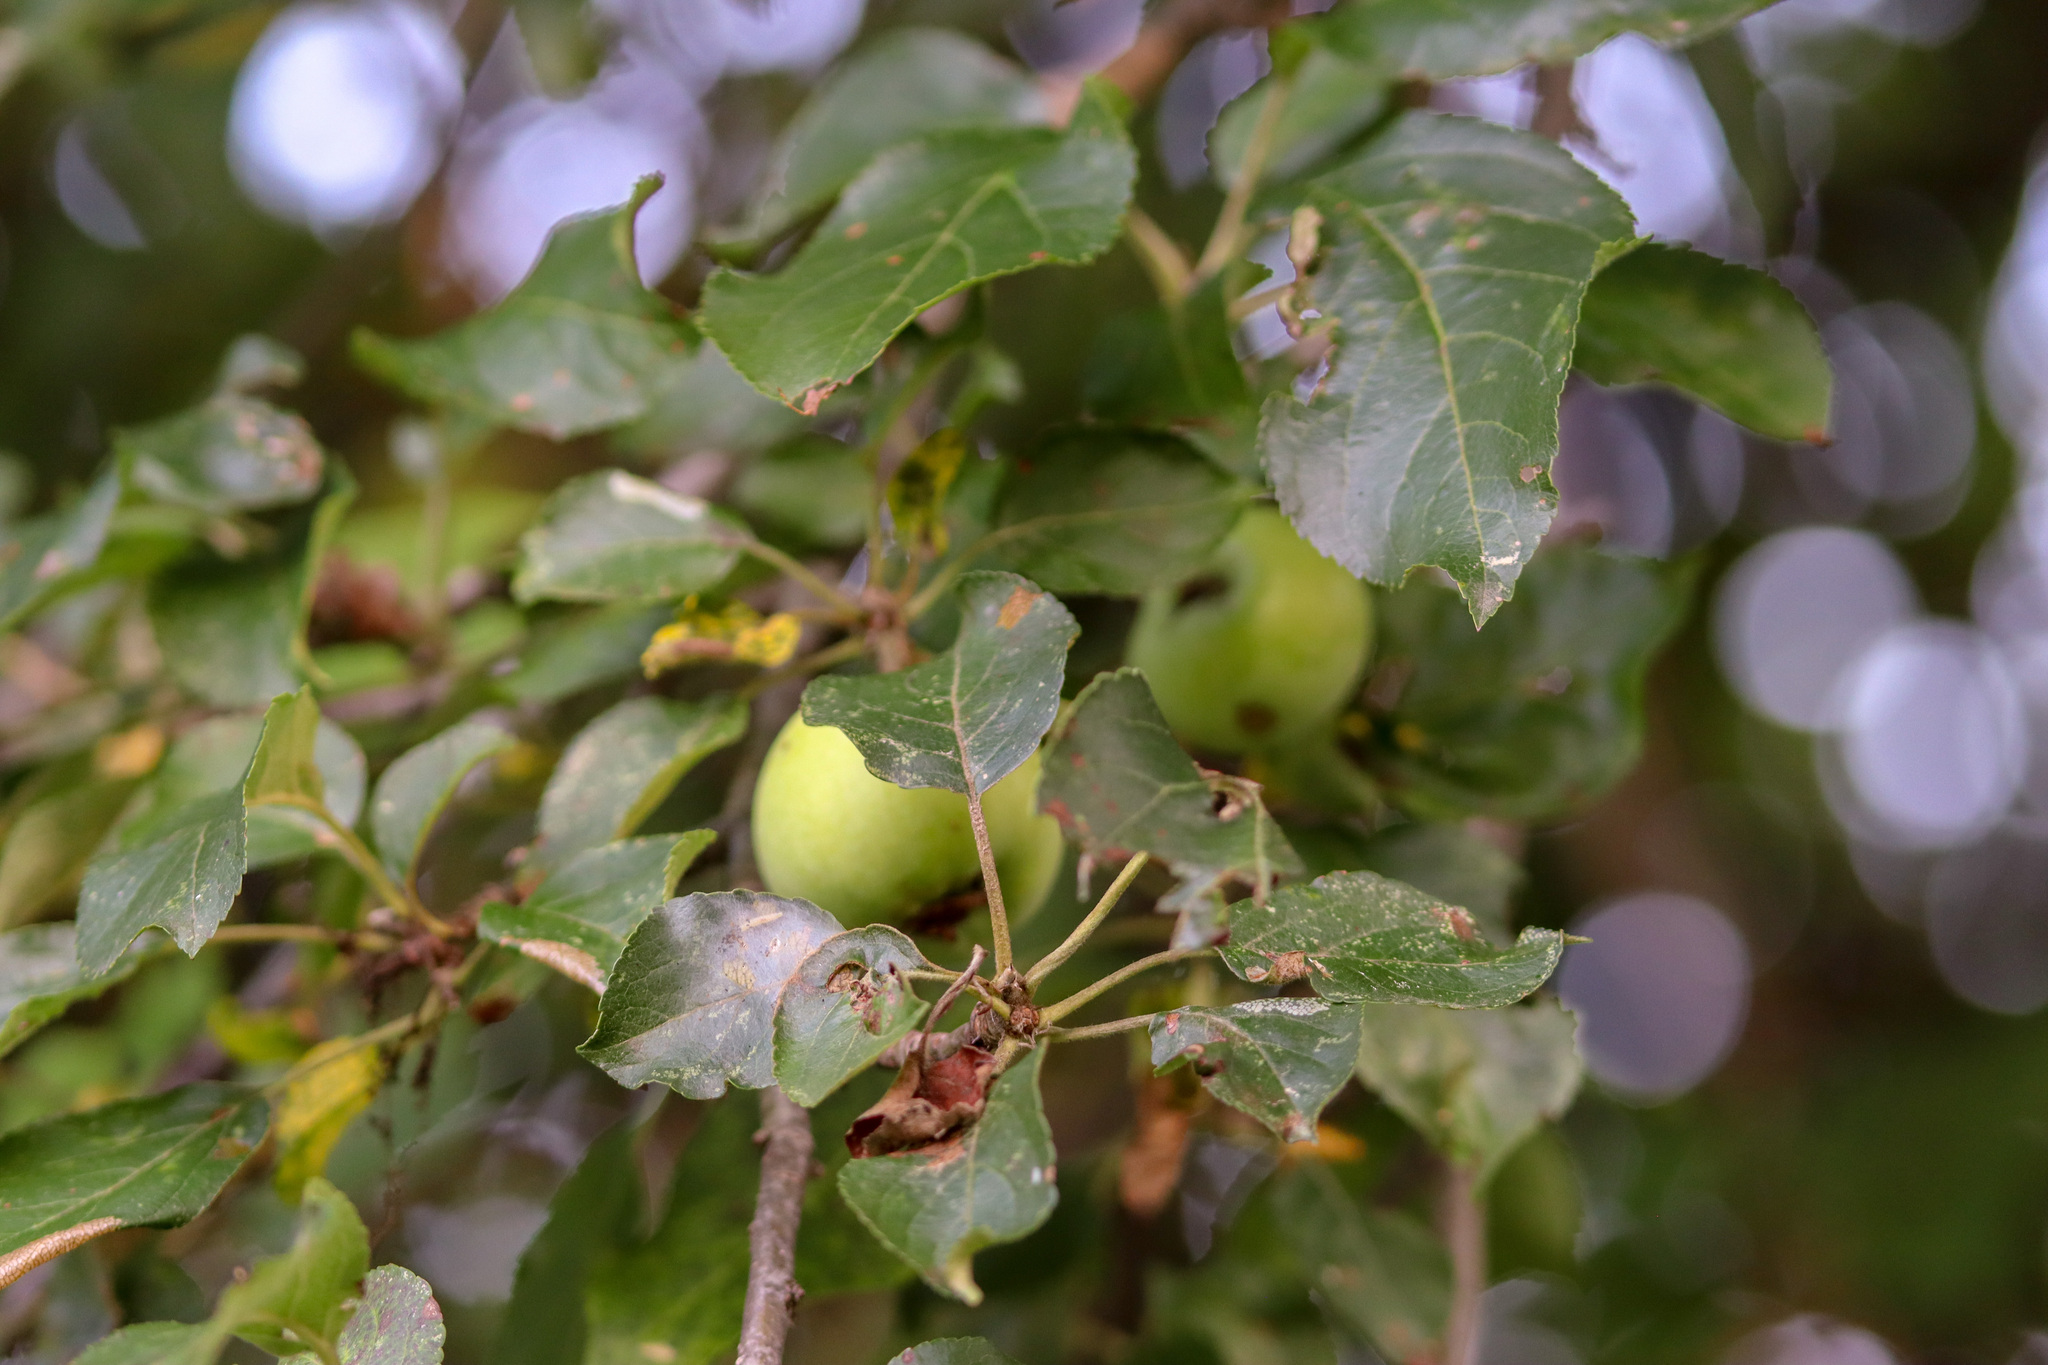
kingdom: Plantae
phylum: Tracheophyta
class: Magnoliopsida
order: Rosales
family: Rosaceae
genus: Malus
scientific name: Malus domestica
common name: Apple
